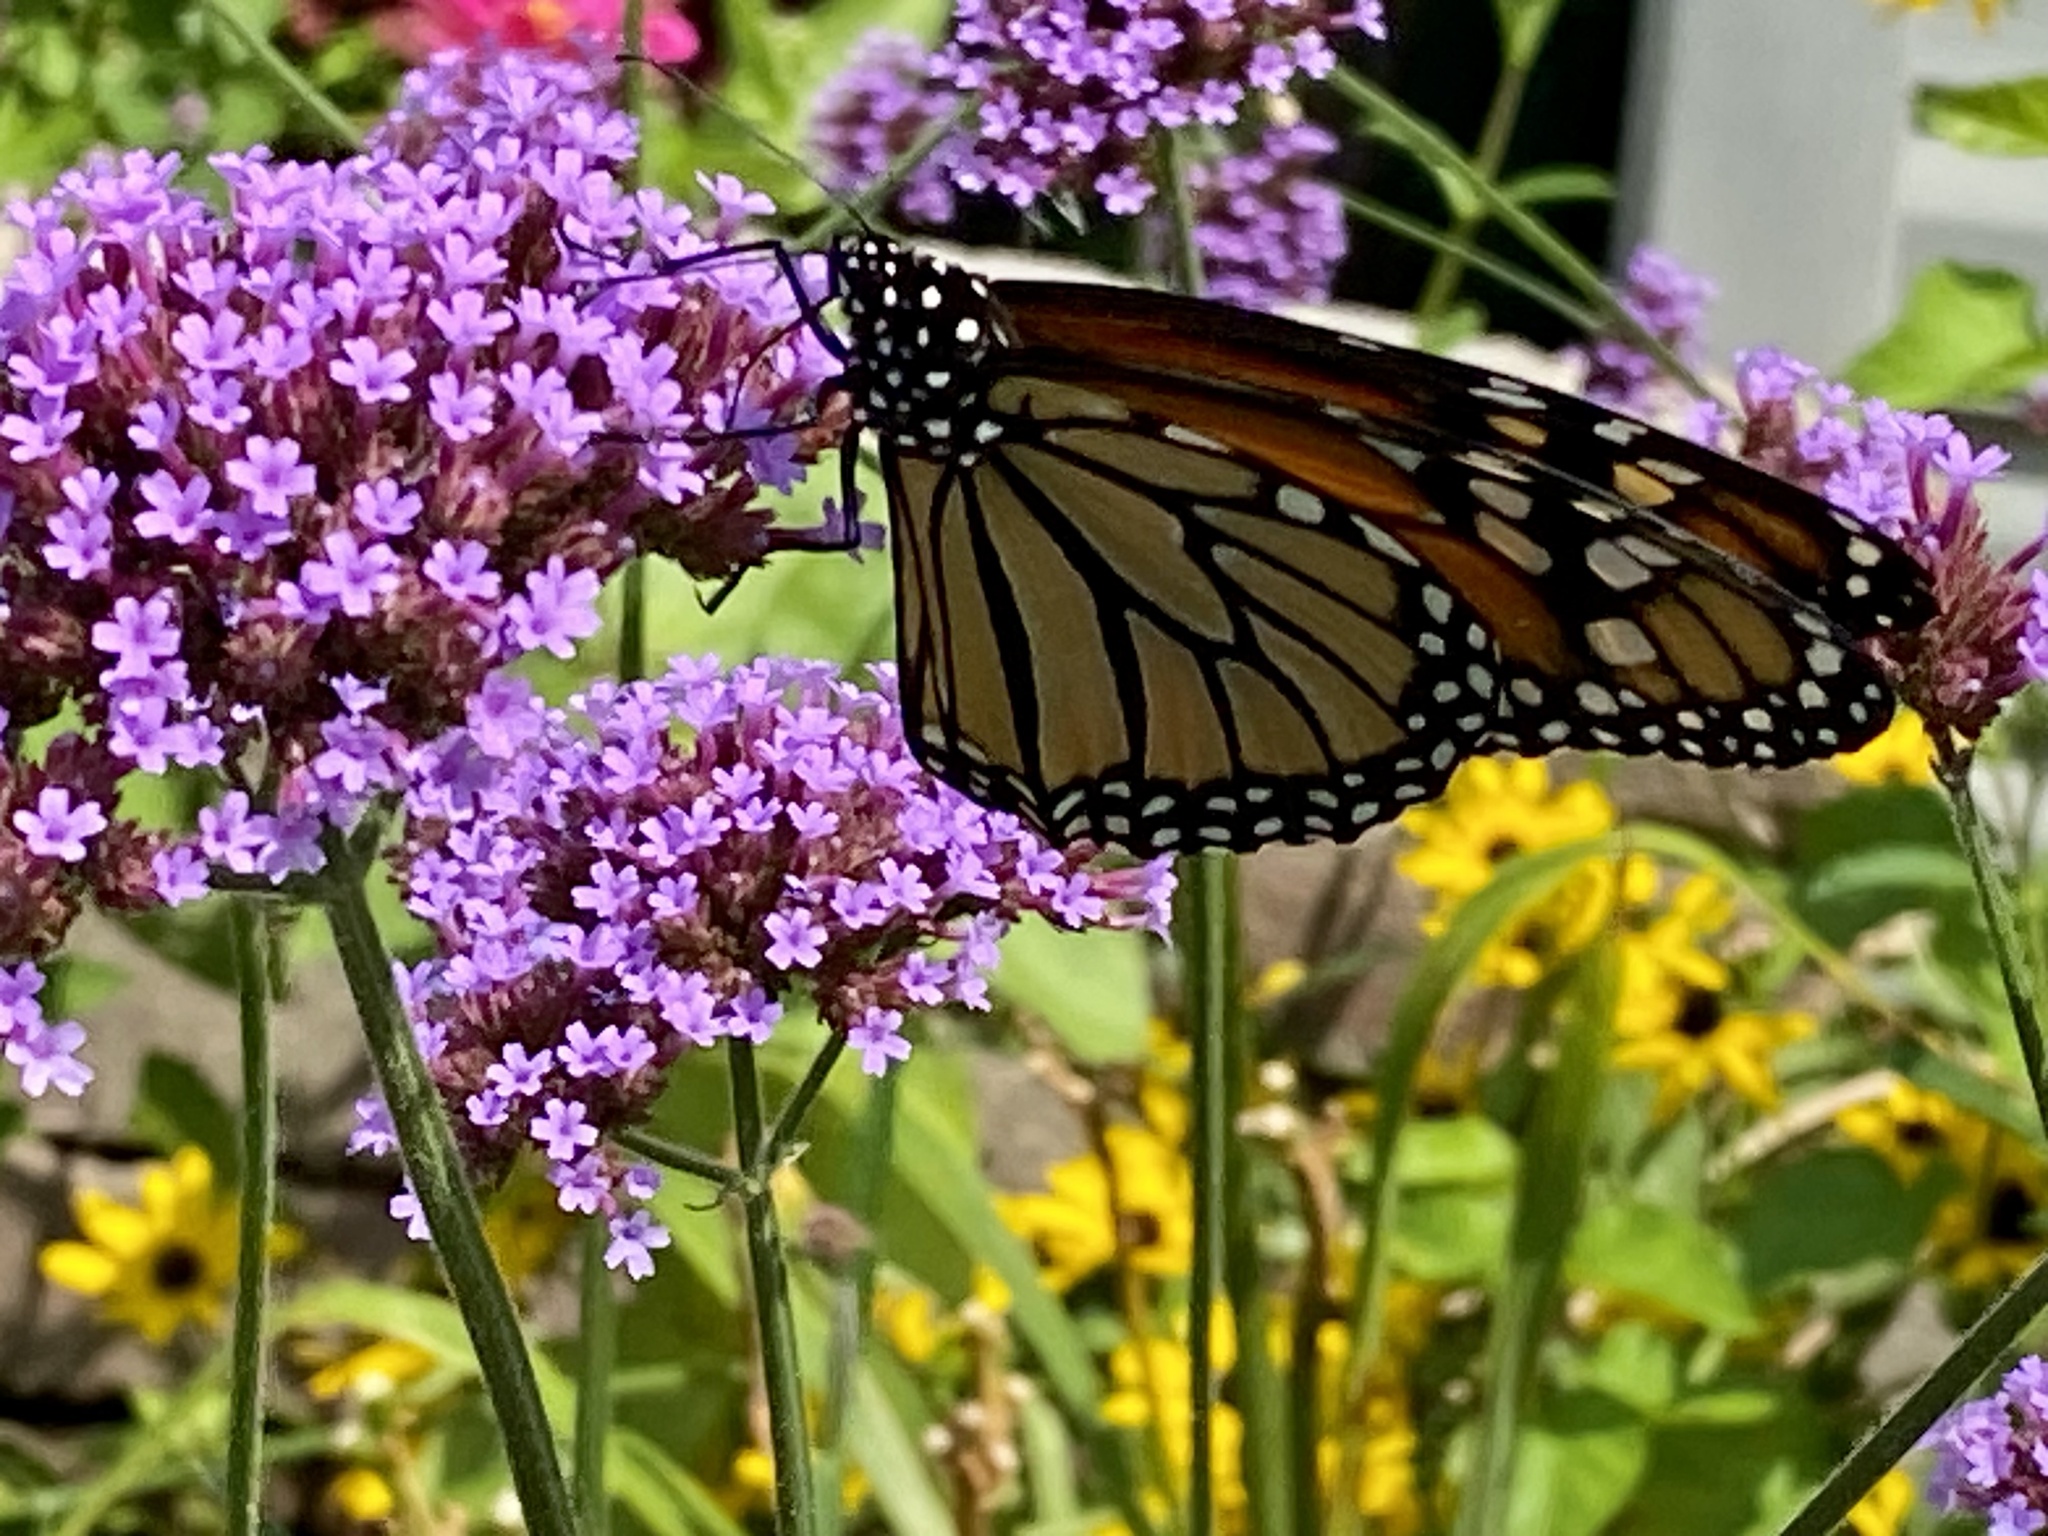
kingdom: Animalia
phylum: Arthropoda
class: Insecta
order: Lepidoptera
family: Nymphalidae
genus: Danaus
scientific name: Danaus plexippus
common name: Monarch
